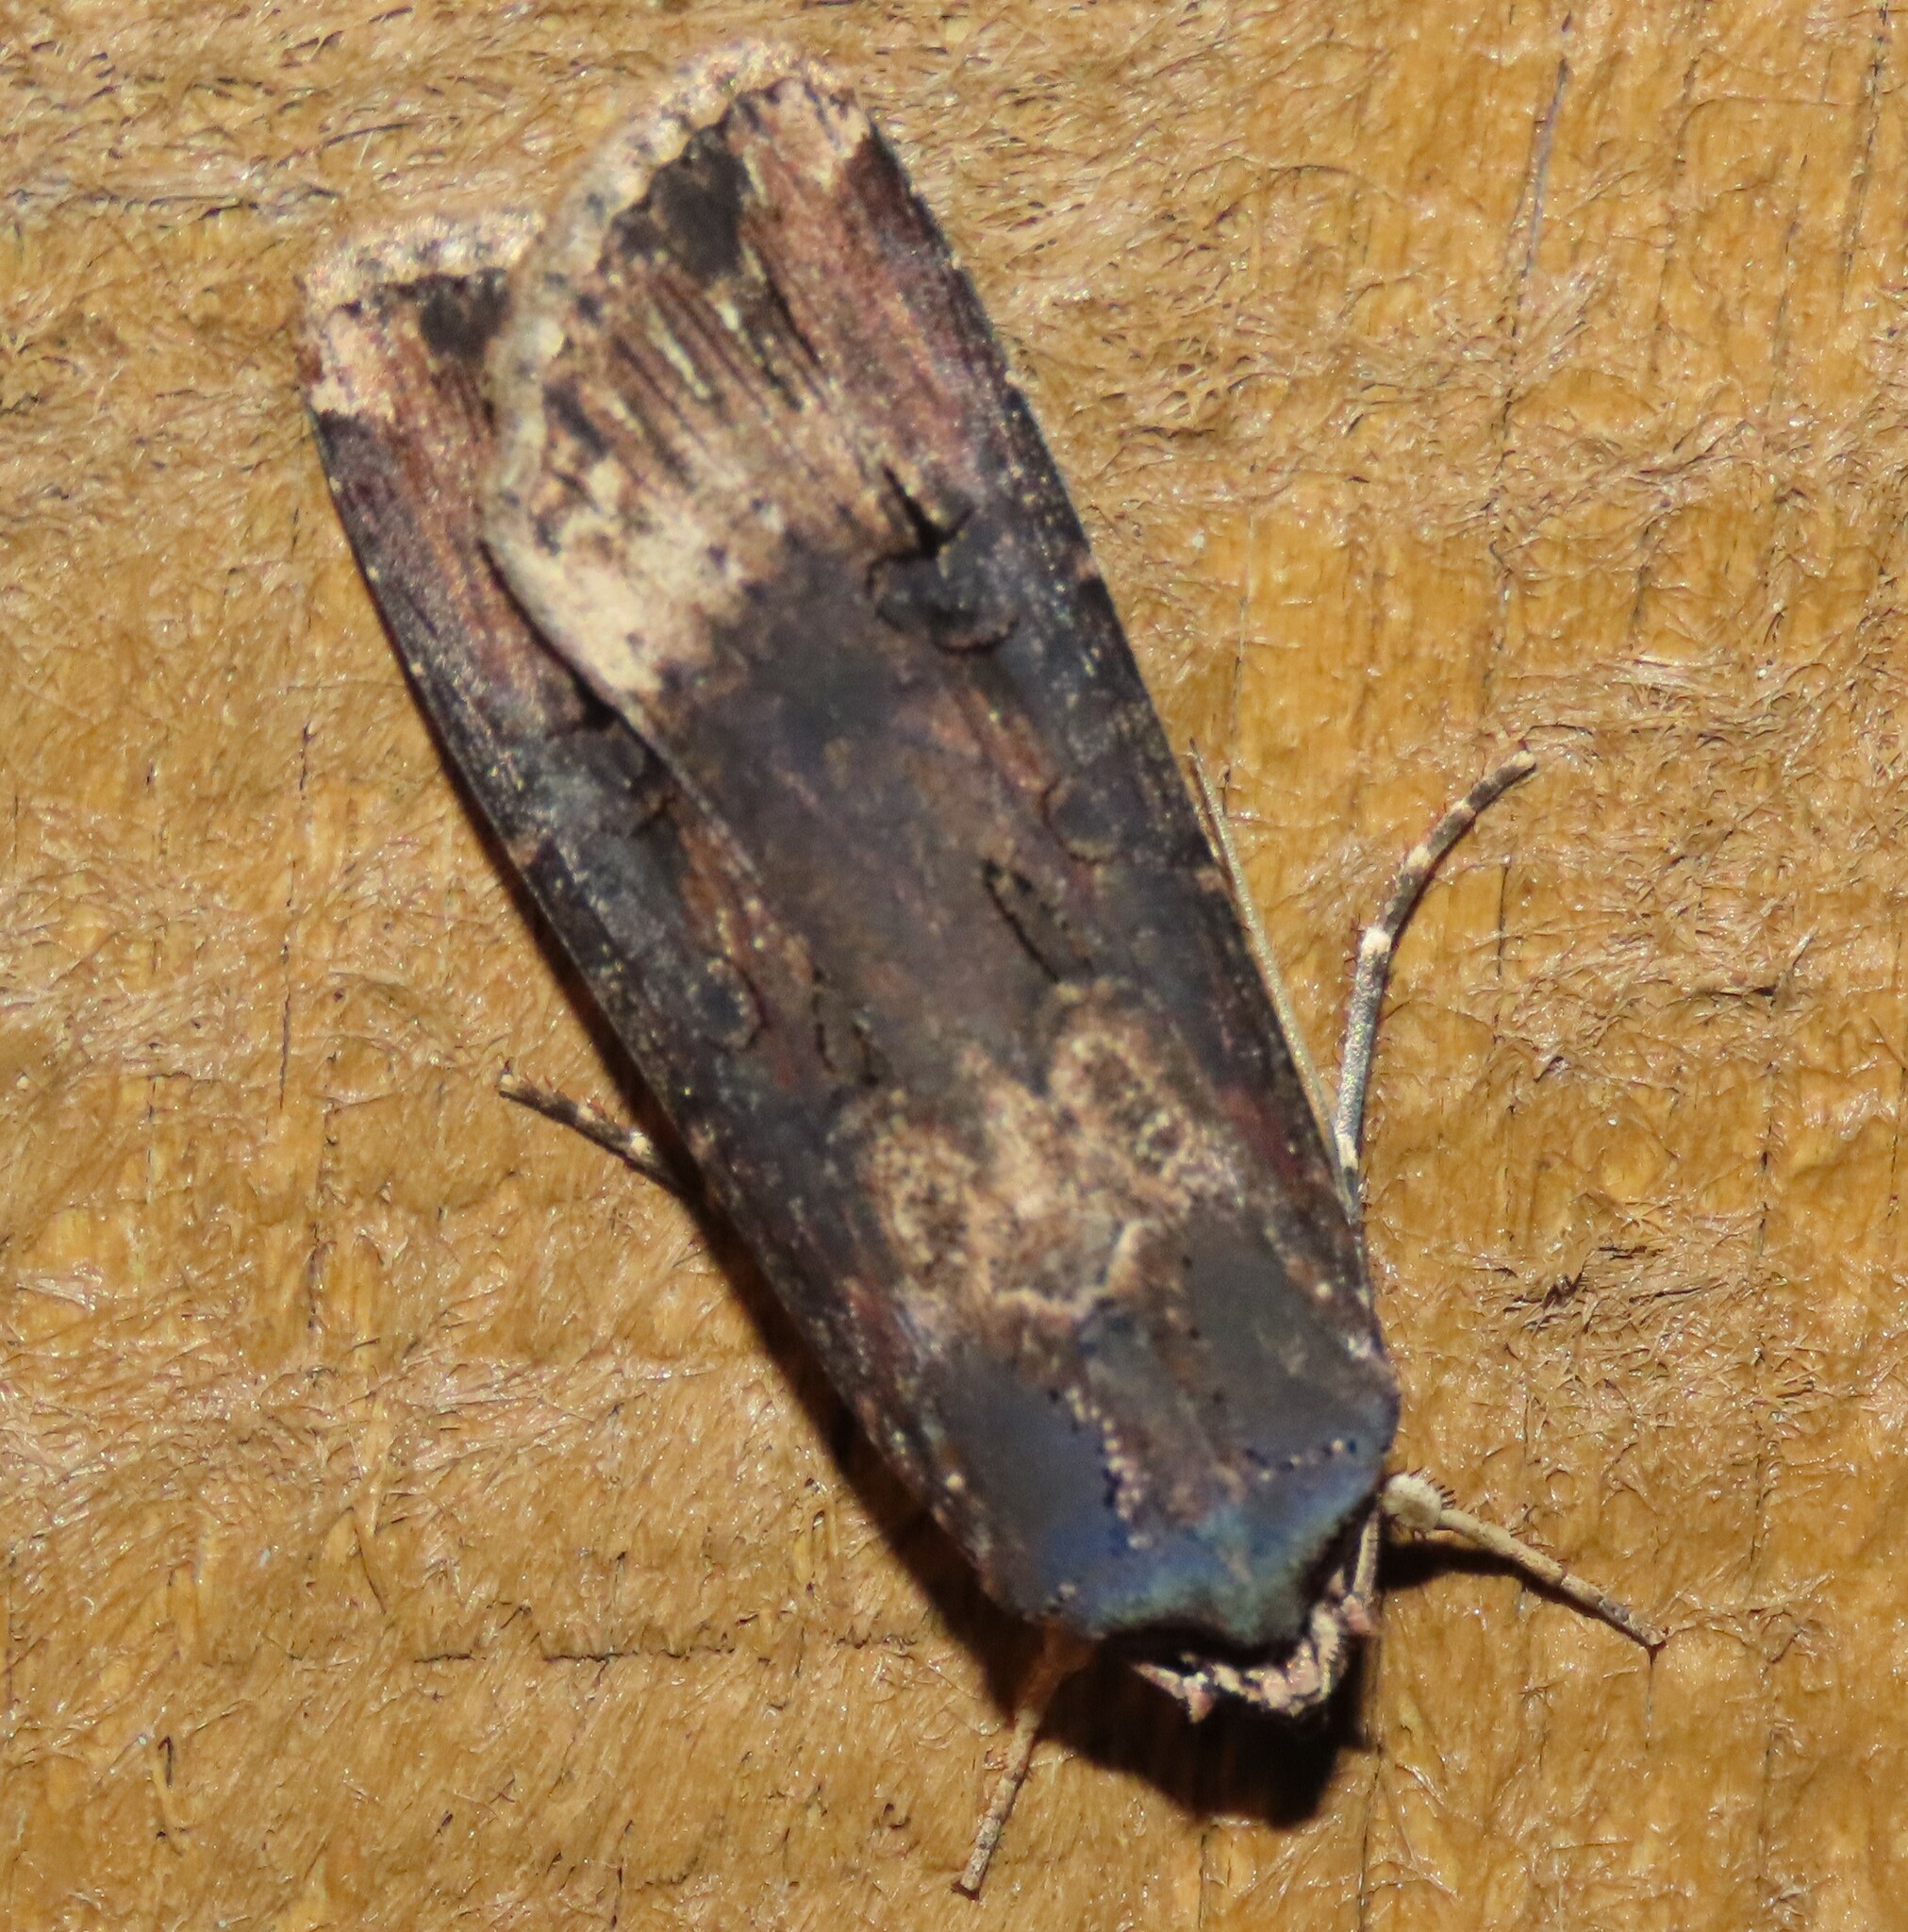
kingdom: Animalia
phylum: Arthropoda
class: Insecta
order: Lepidoptera
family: Noctuidae
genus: Agrotis
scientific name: Agrotis ipsilon
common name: Dark sword-grass
